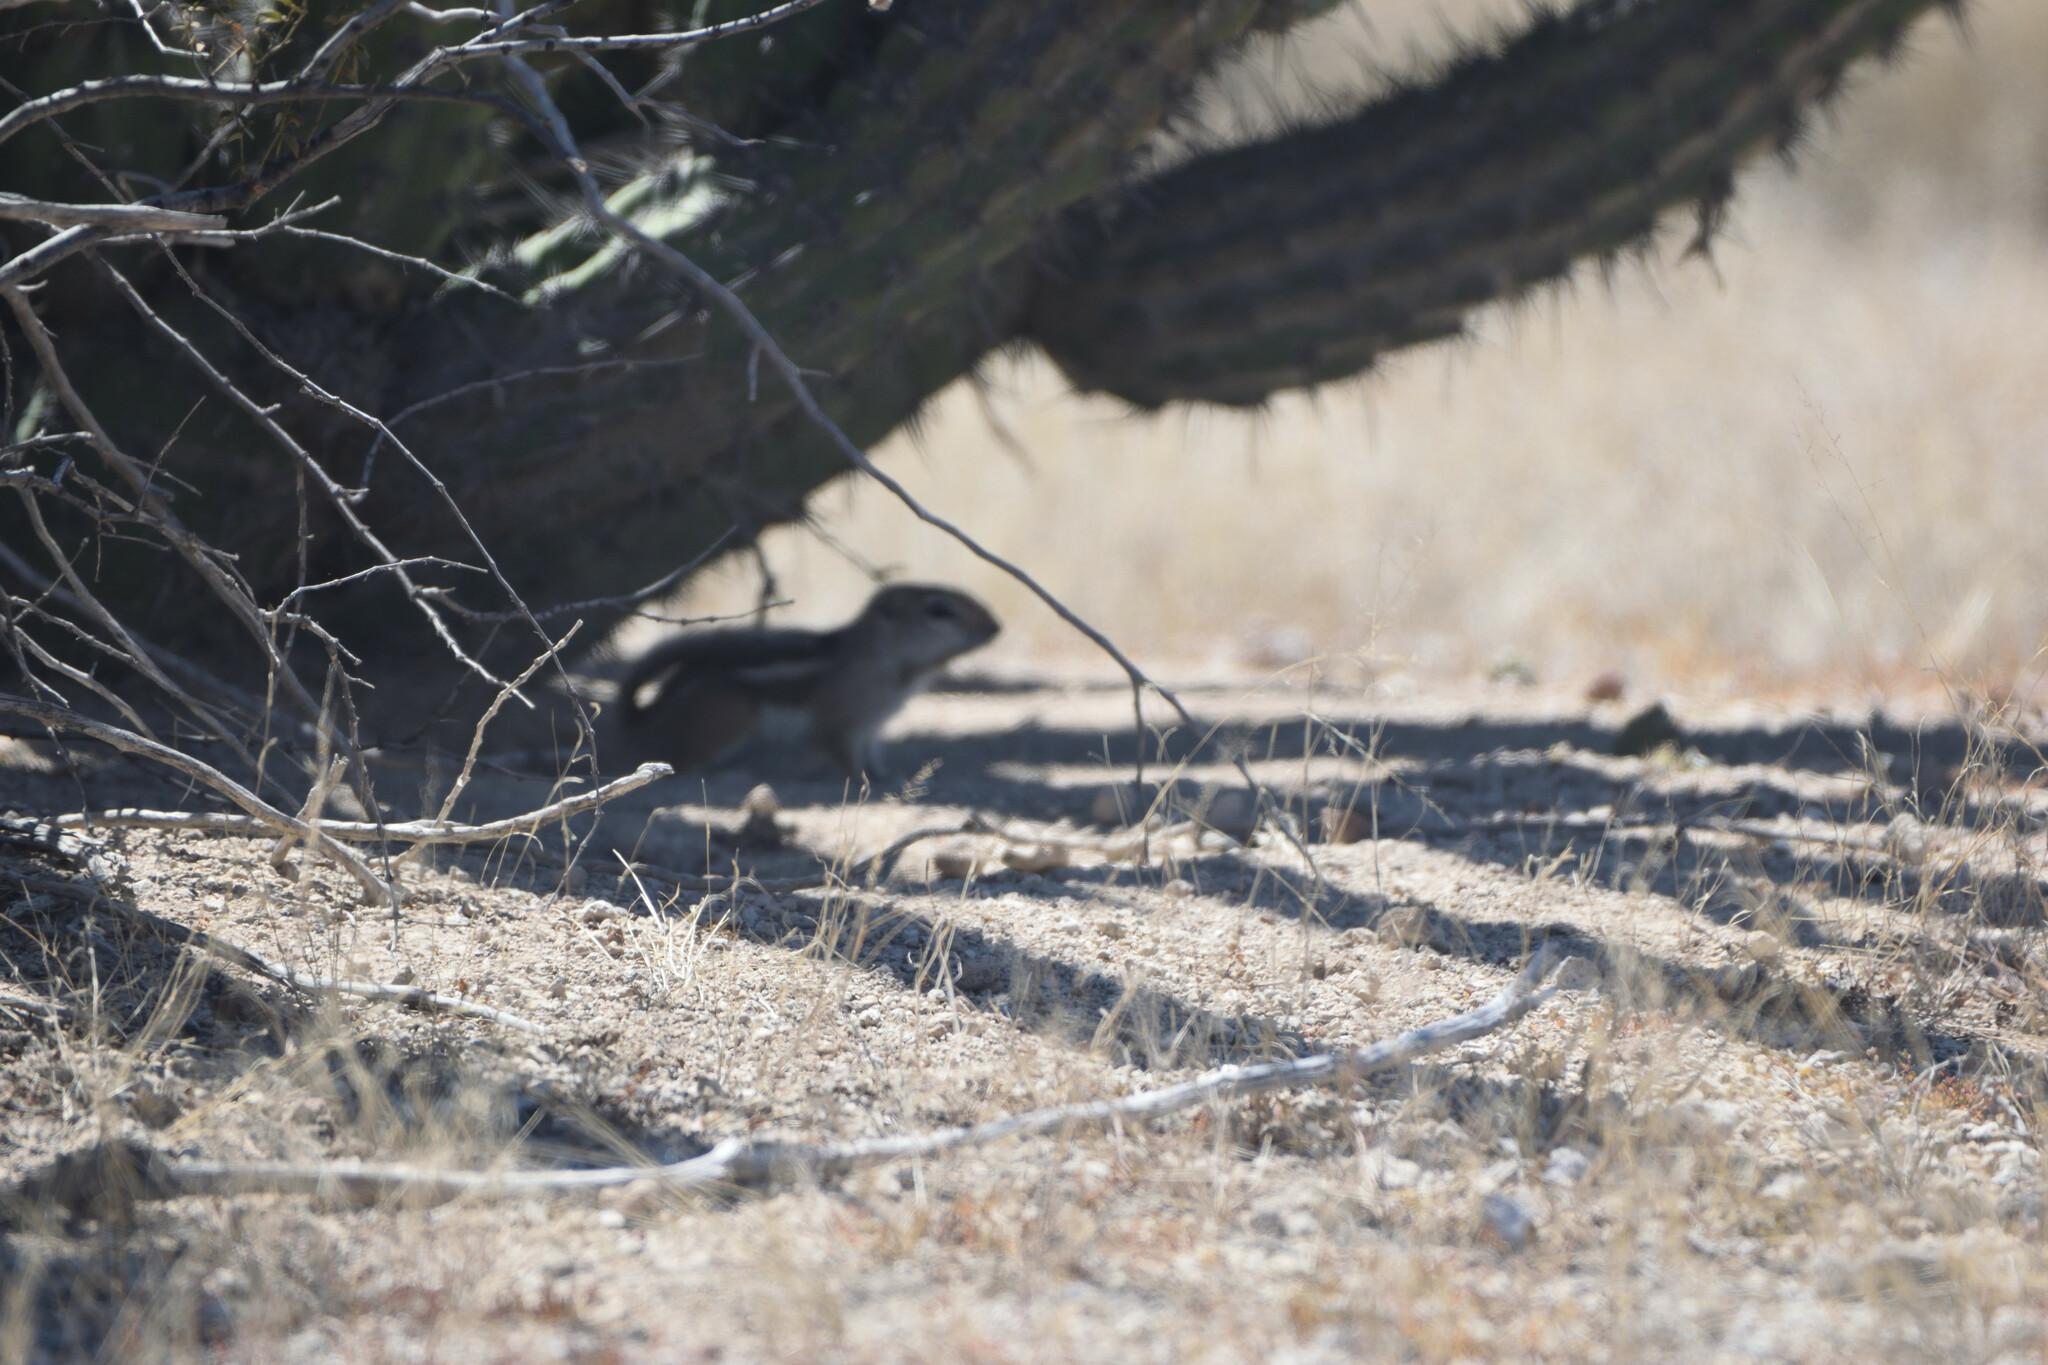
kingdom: Animalia
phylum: Chordata
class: Mammalia
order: Rodentia
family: Sciuridae
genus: Ammospermophilus
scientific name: Ammospermophilus leucurus
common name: White-tailed antelope squirrel
